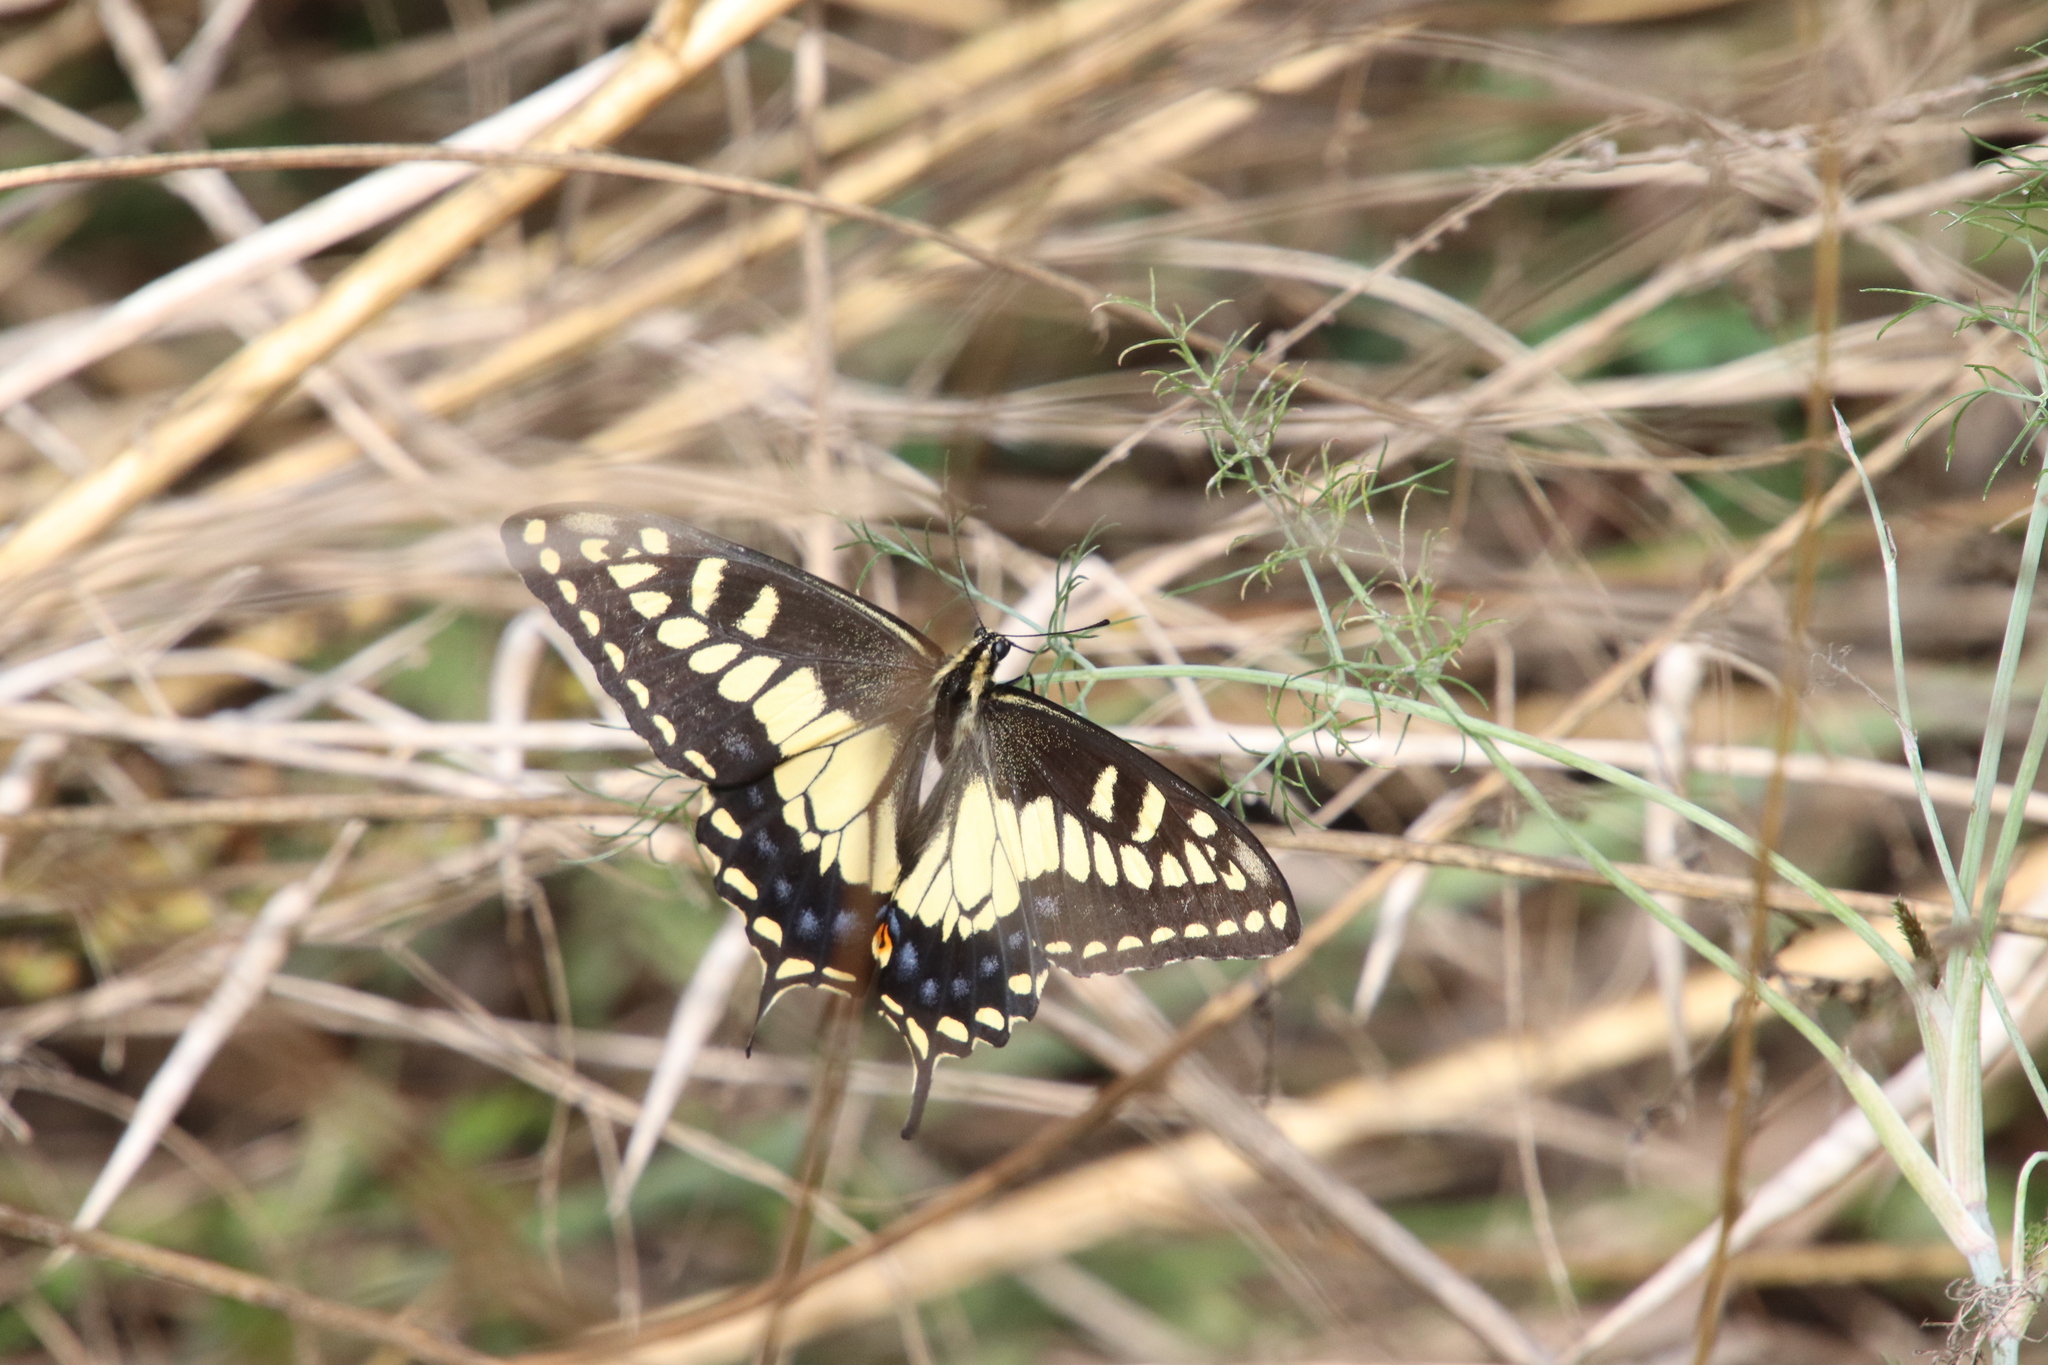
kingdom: Animalia
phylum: Arthropoda
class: Insecta
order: Lepidoptera
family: Papilionidae
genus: Papilio
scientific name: Papilio zelicaon
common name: Anise swallowtail
